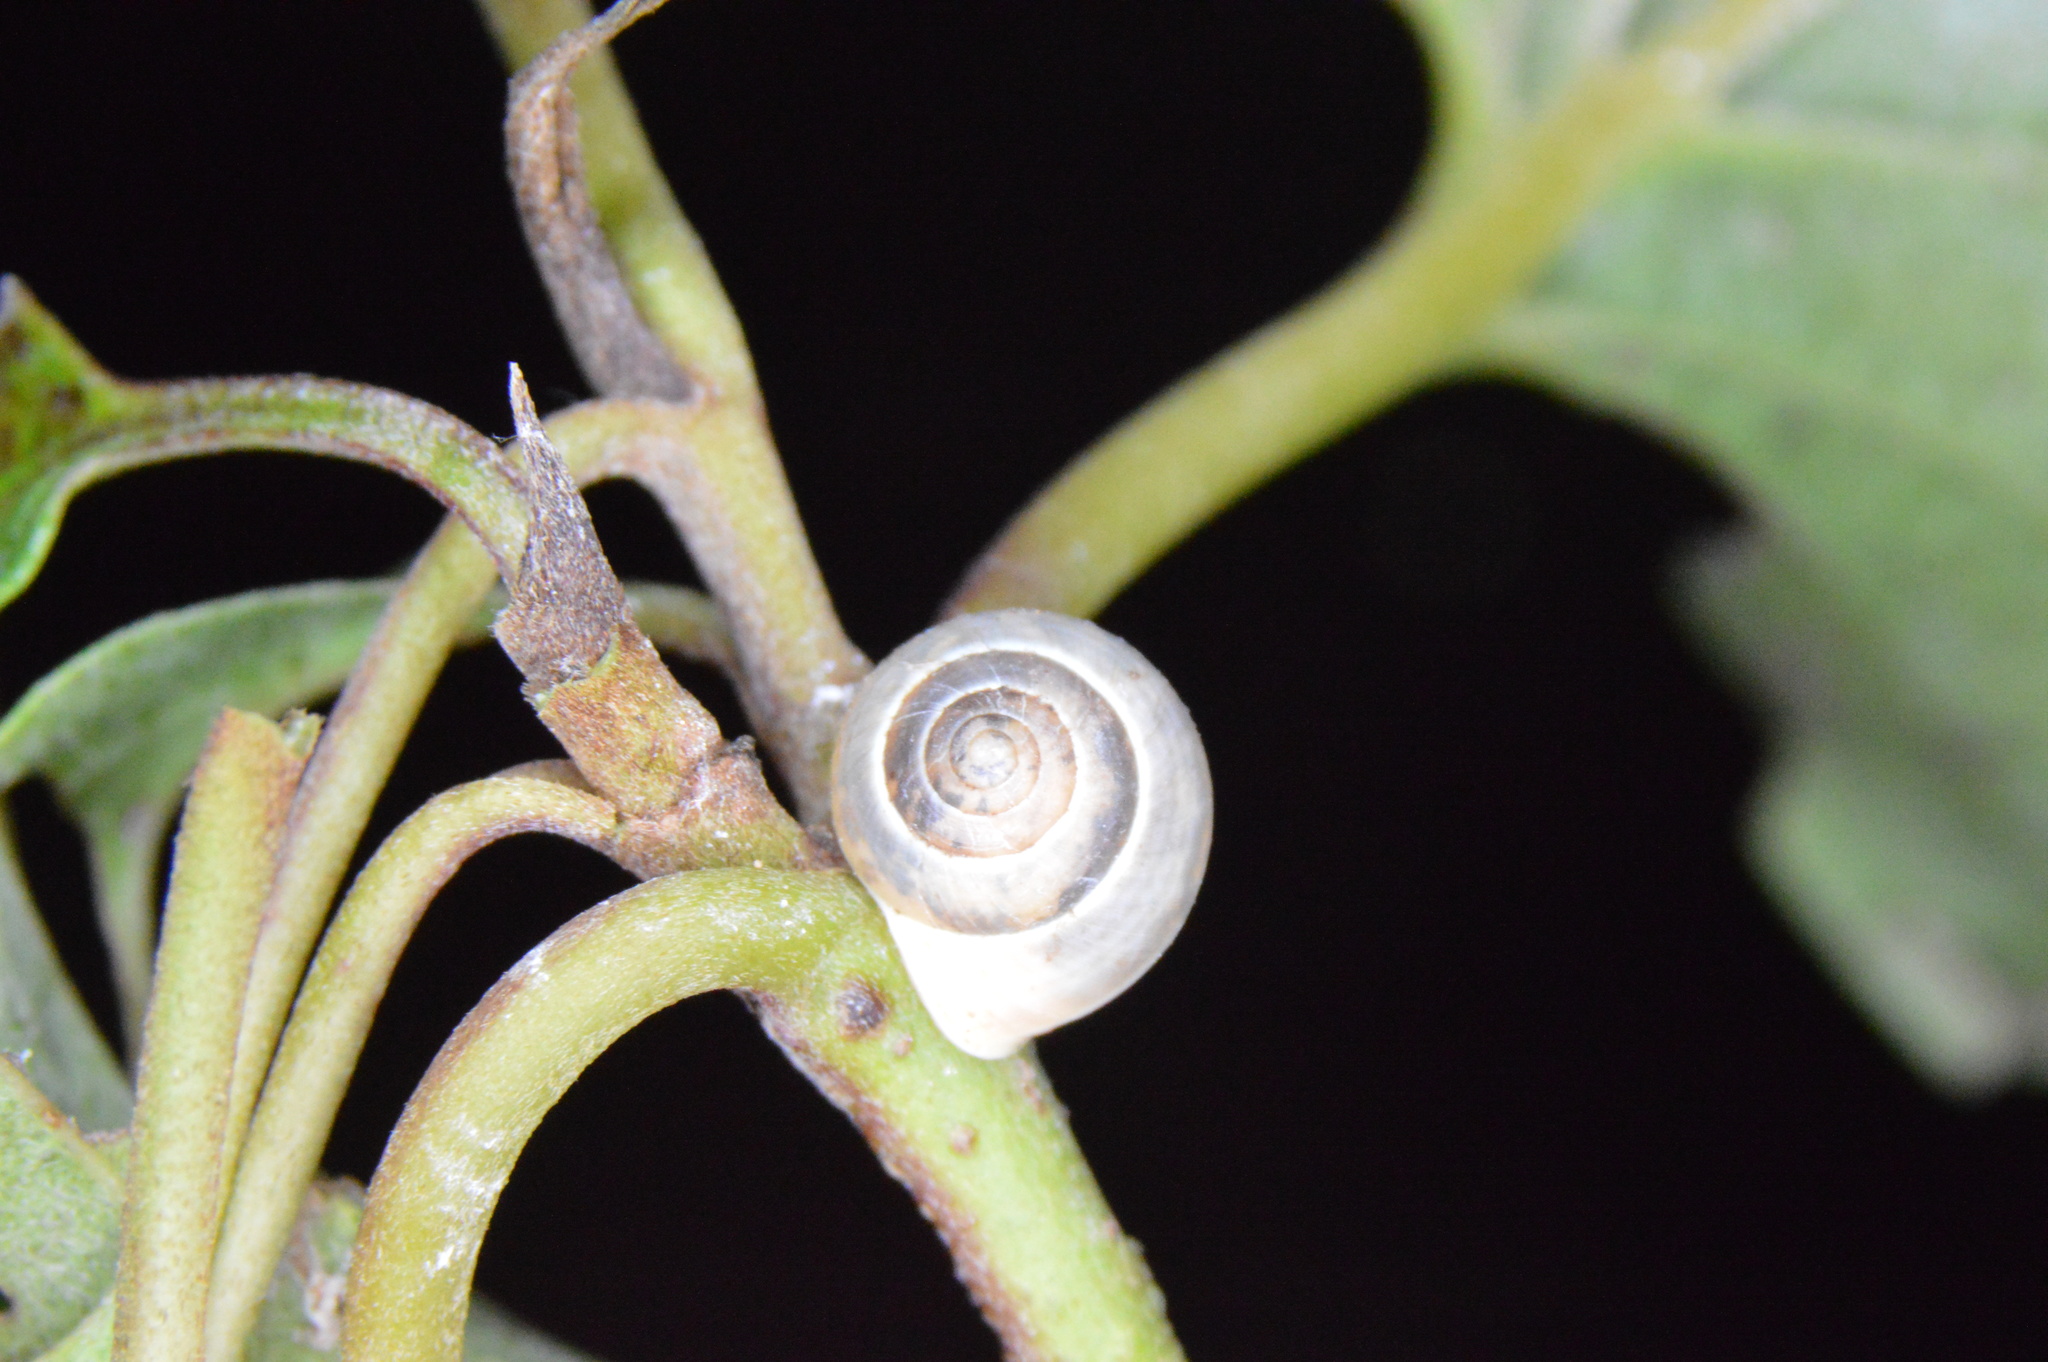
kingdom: Animalia
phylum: Mollusca
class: Gastropoda
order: Cycloneritida
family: Helicinidae
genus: Helicina
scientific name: Helicina orbiculata
